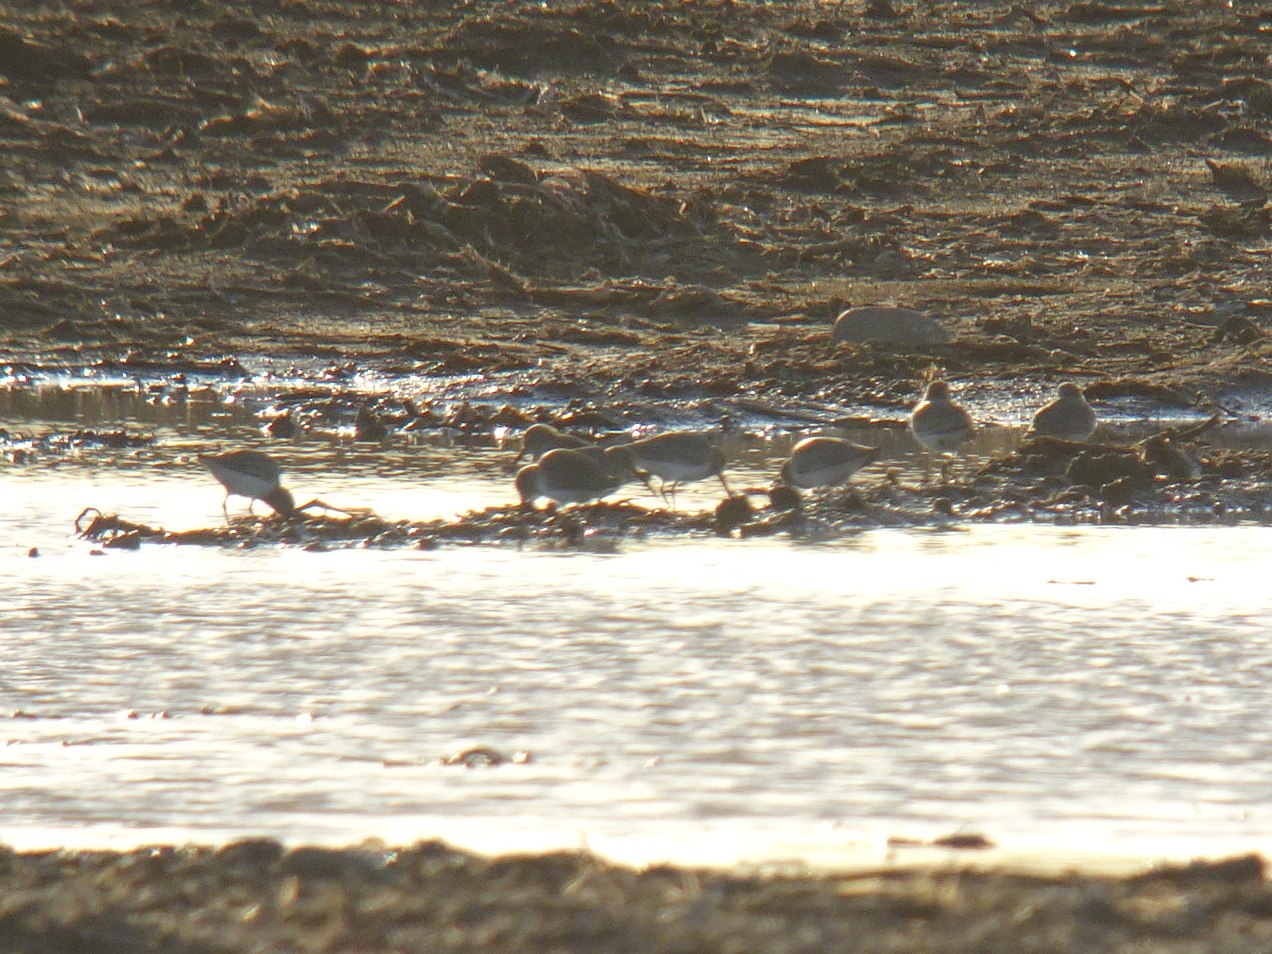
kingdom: Animalia
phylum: Chordata
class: Aves
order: Charadriiformes
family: Scolopacidae
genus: Calidris
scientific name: Calidris alpina
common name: Dunlin
